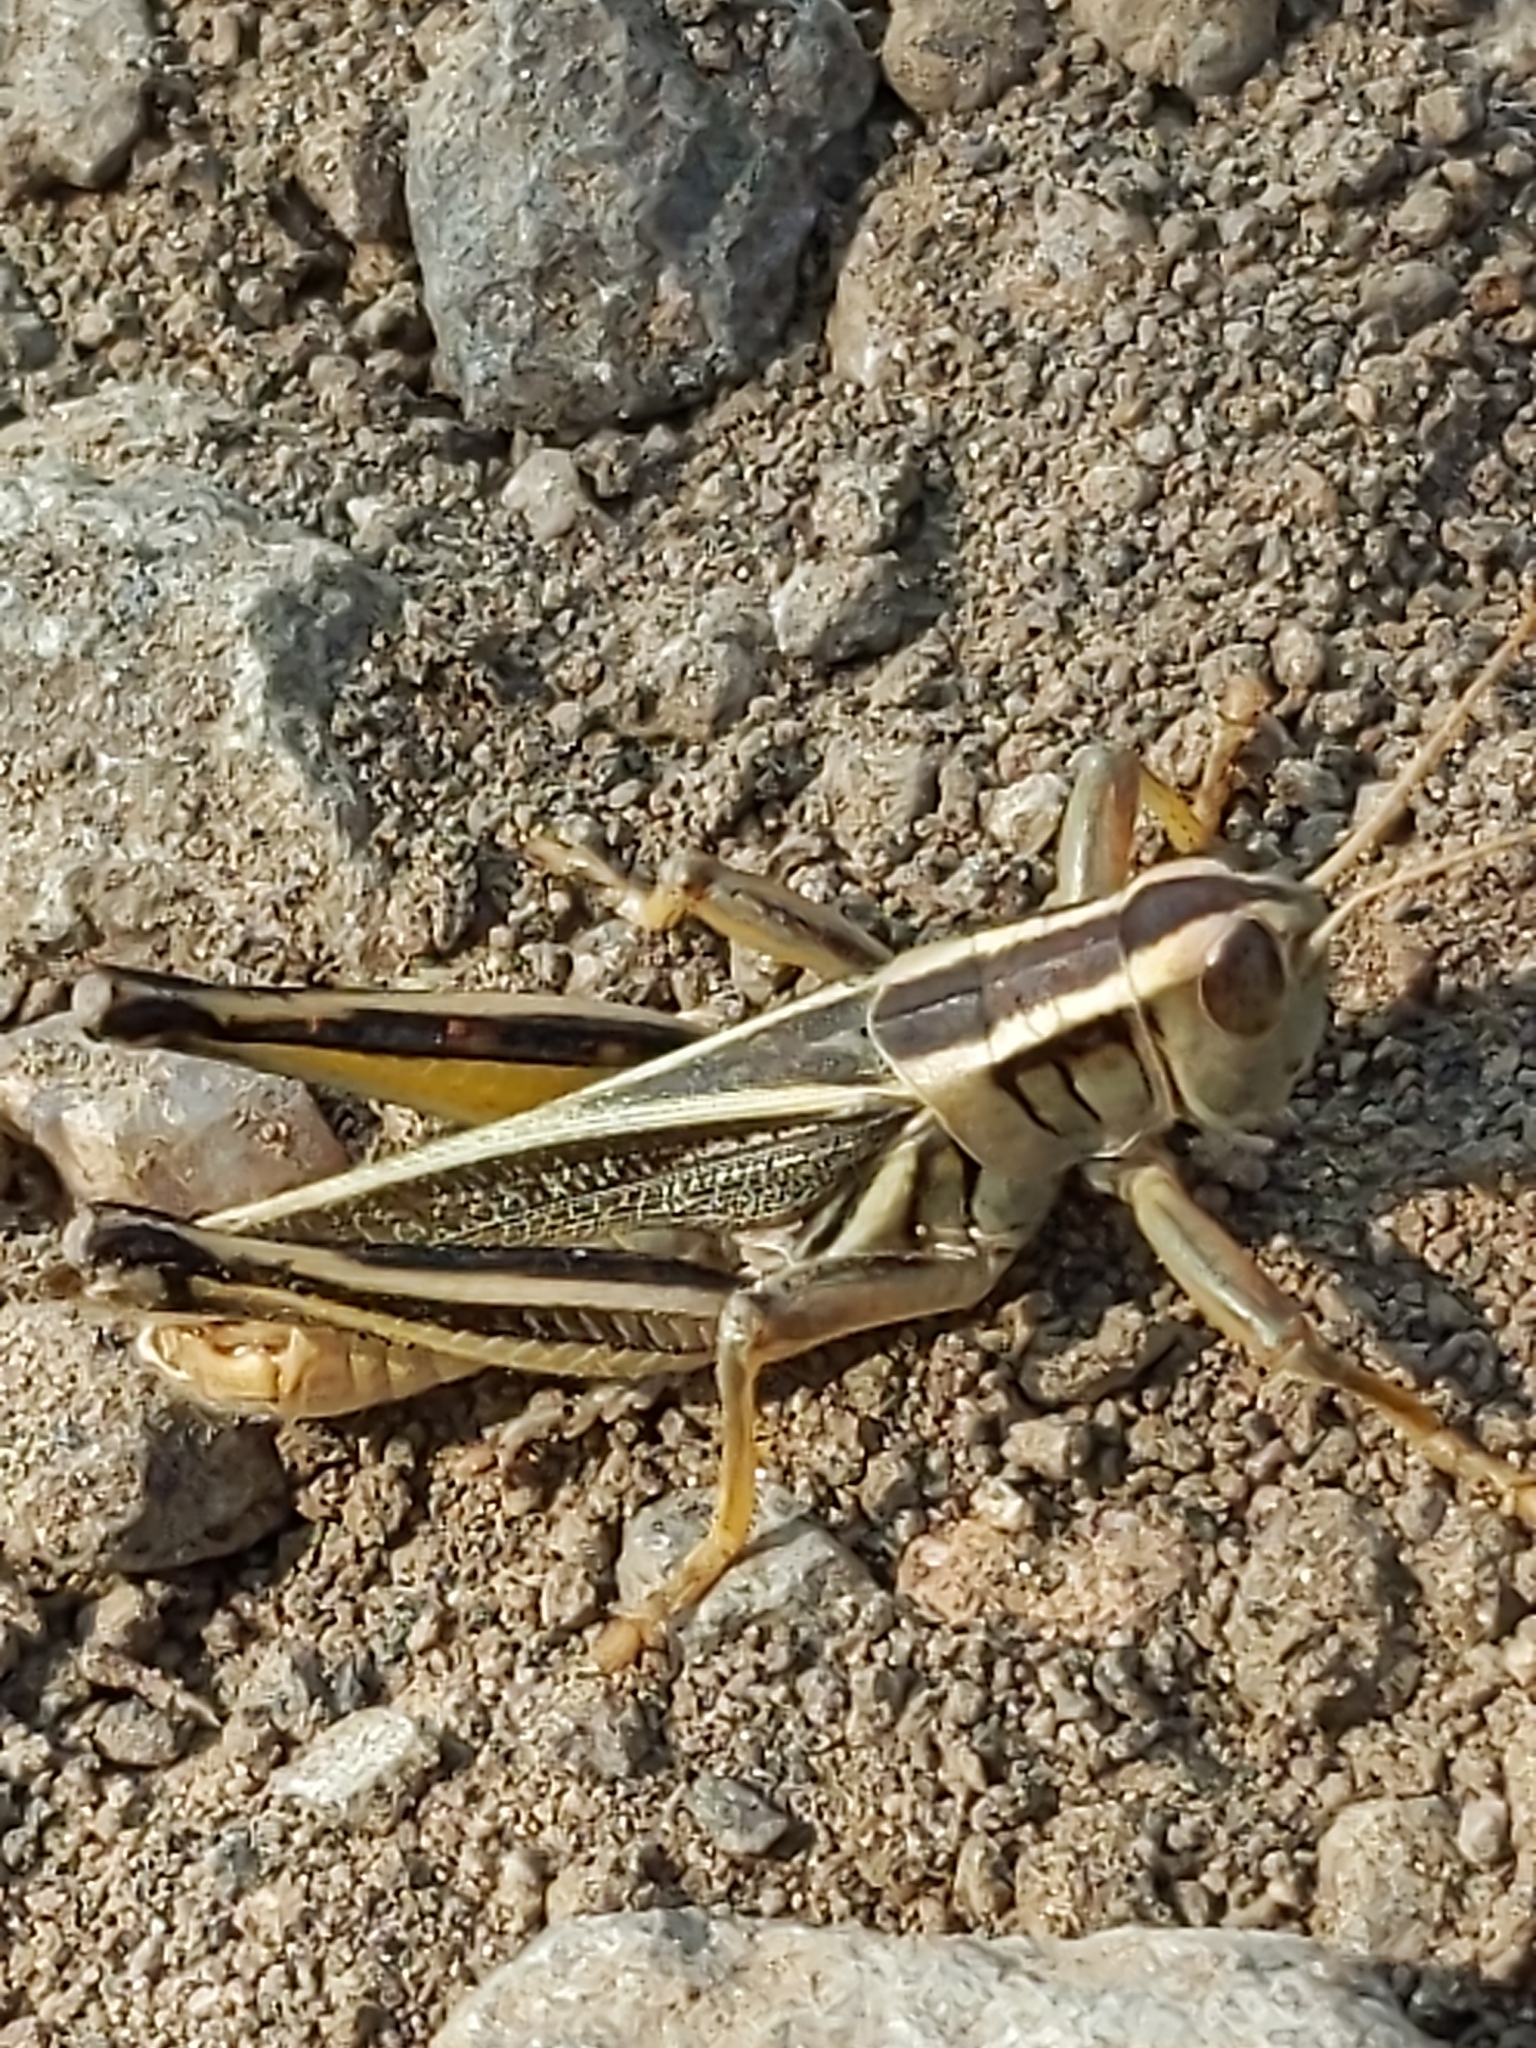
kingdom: Animalia
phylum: Arthropoda
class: Insecta
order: Orthoptera
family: Acrididae
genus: Melanoplus
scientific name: Melanoplus bivittatus
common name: Two-striped grasshopper
